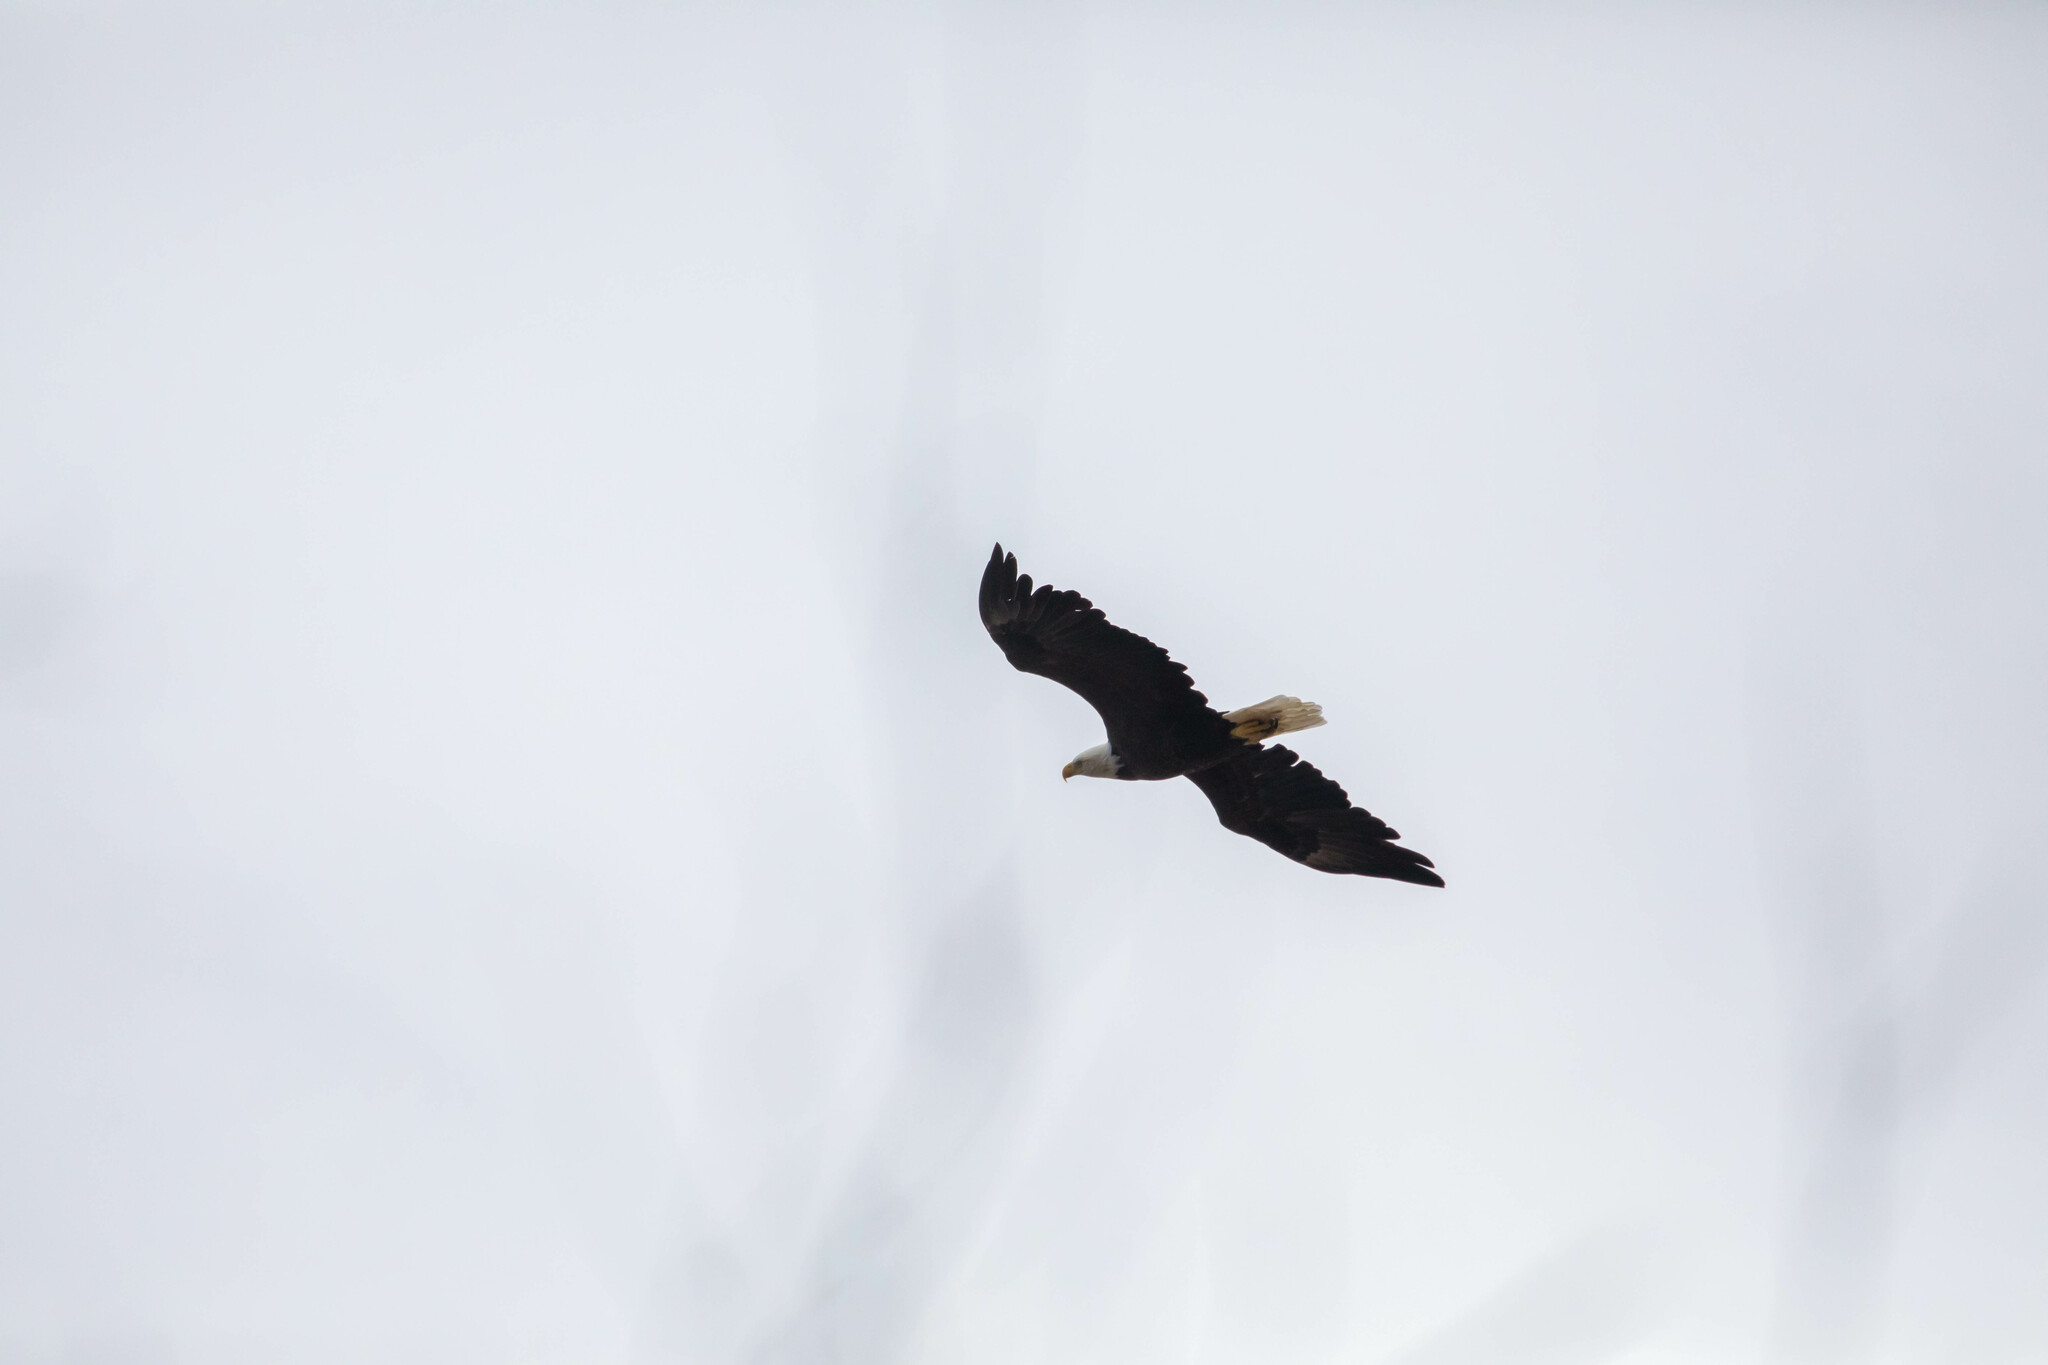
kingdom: Animalia
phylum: Chordata
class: Aves
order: Accipitriformes
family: Accipitridae
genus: Haliaeetus
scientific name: Haliaeetus leucocephalus
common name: Bald eagle
